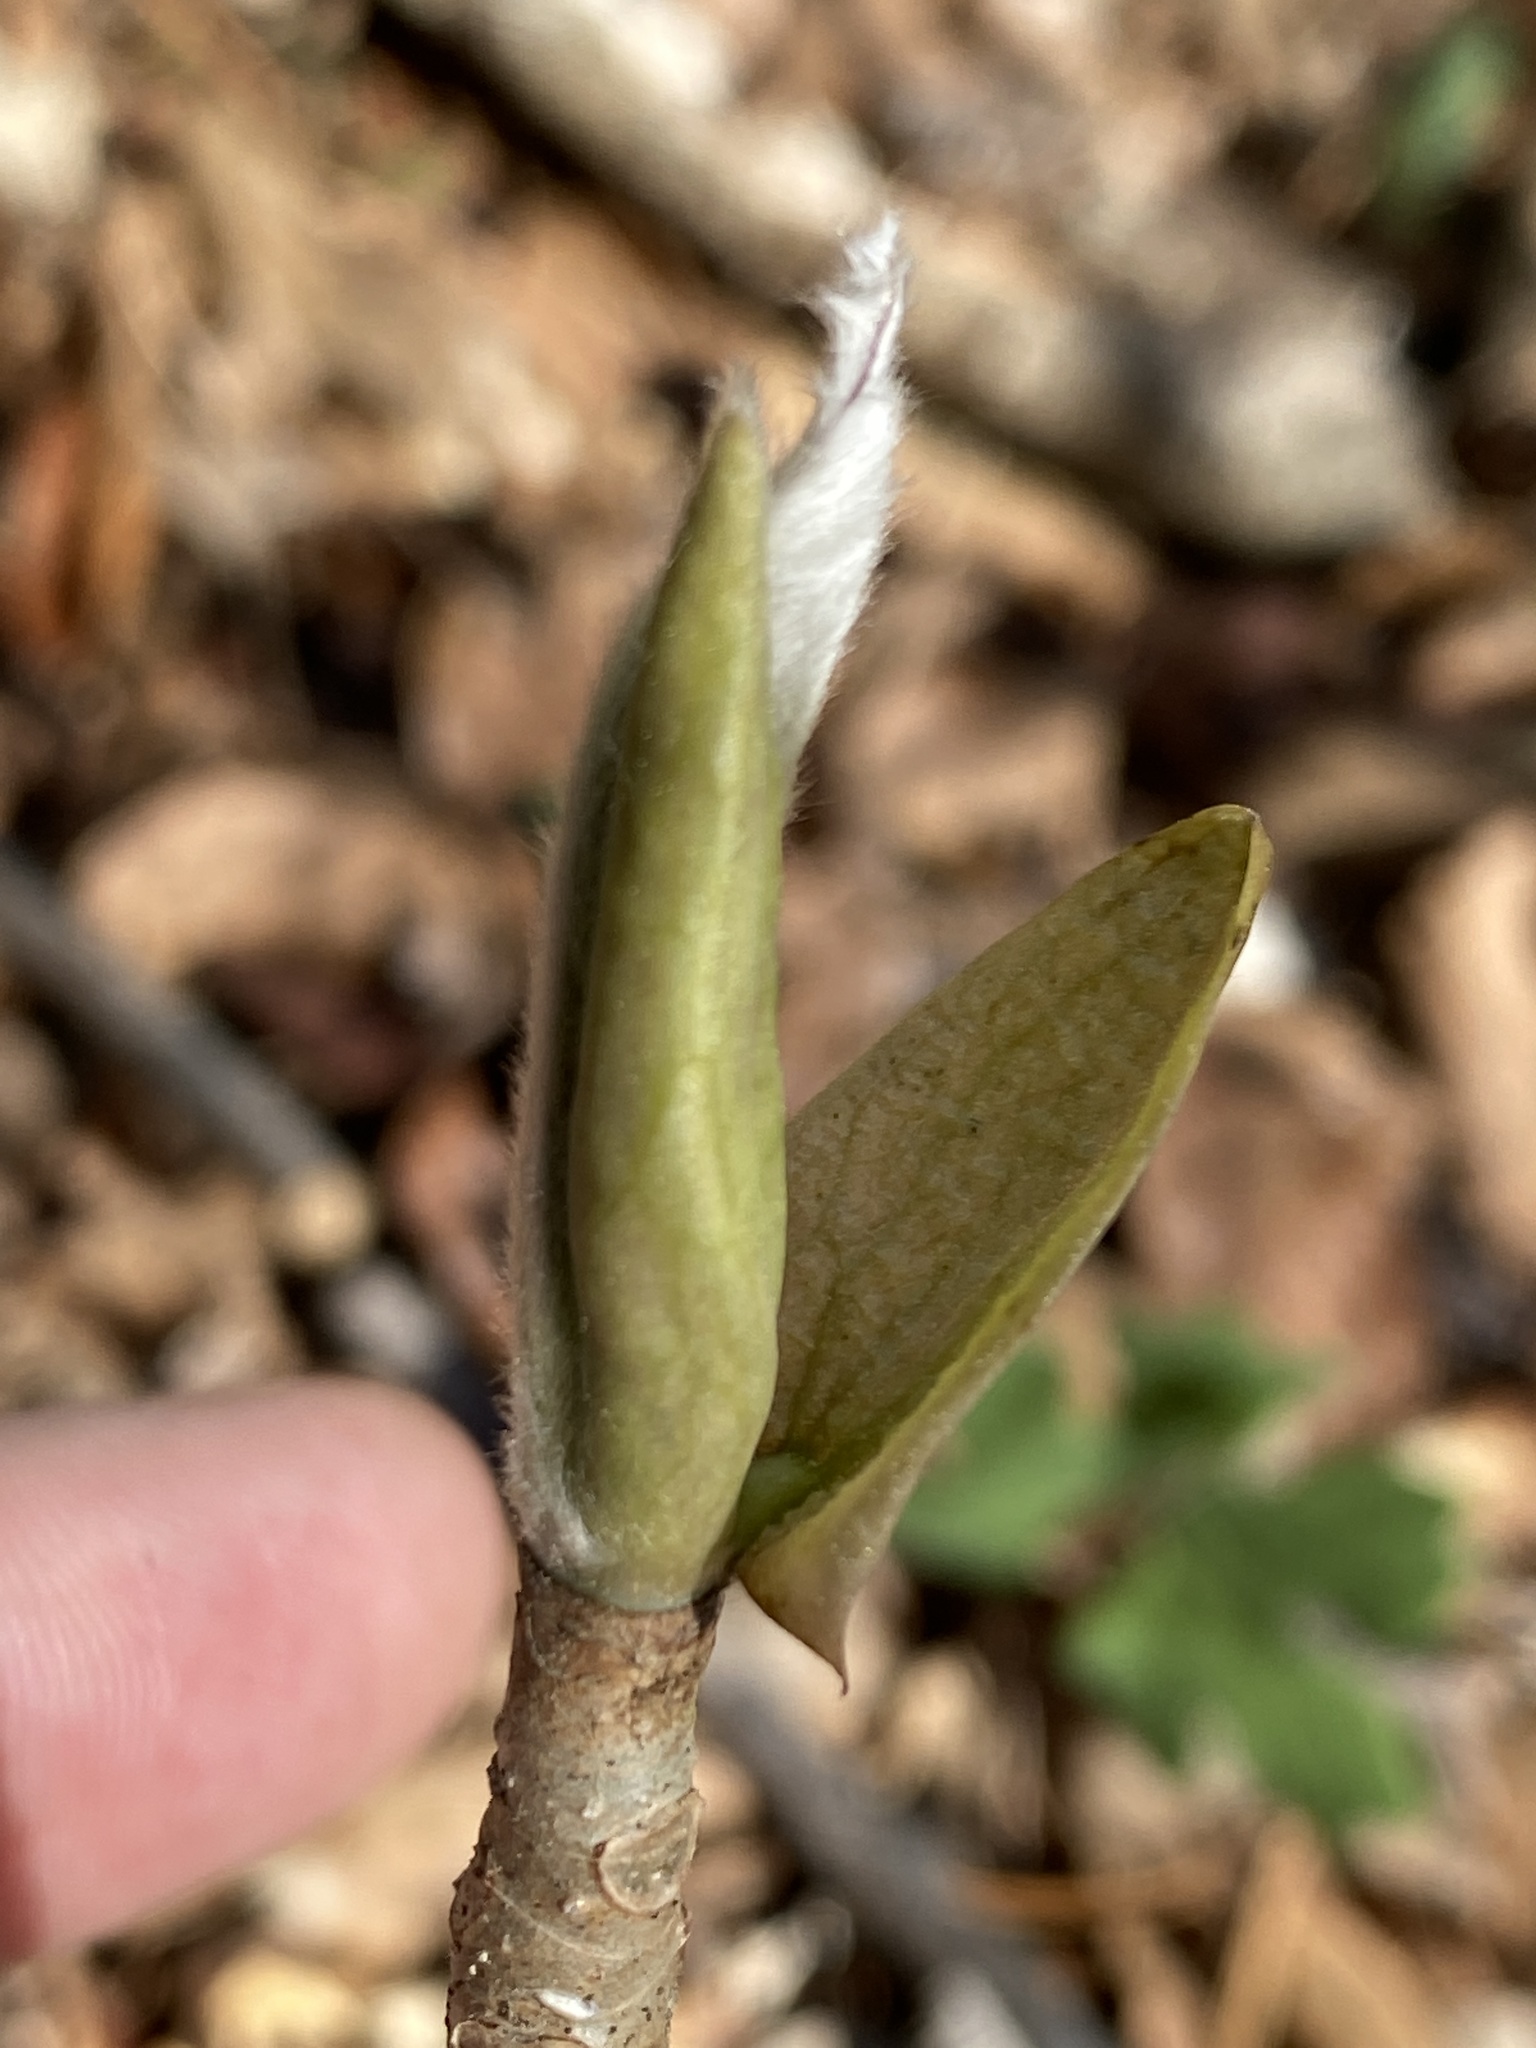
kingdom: Plantae
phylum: Tracheophyta
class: Magnoliopsida
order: Magnoliales
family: Magnoliaceae
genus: Magnolia
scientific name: Magnolia tripetala
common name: Umbrella magnolia
